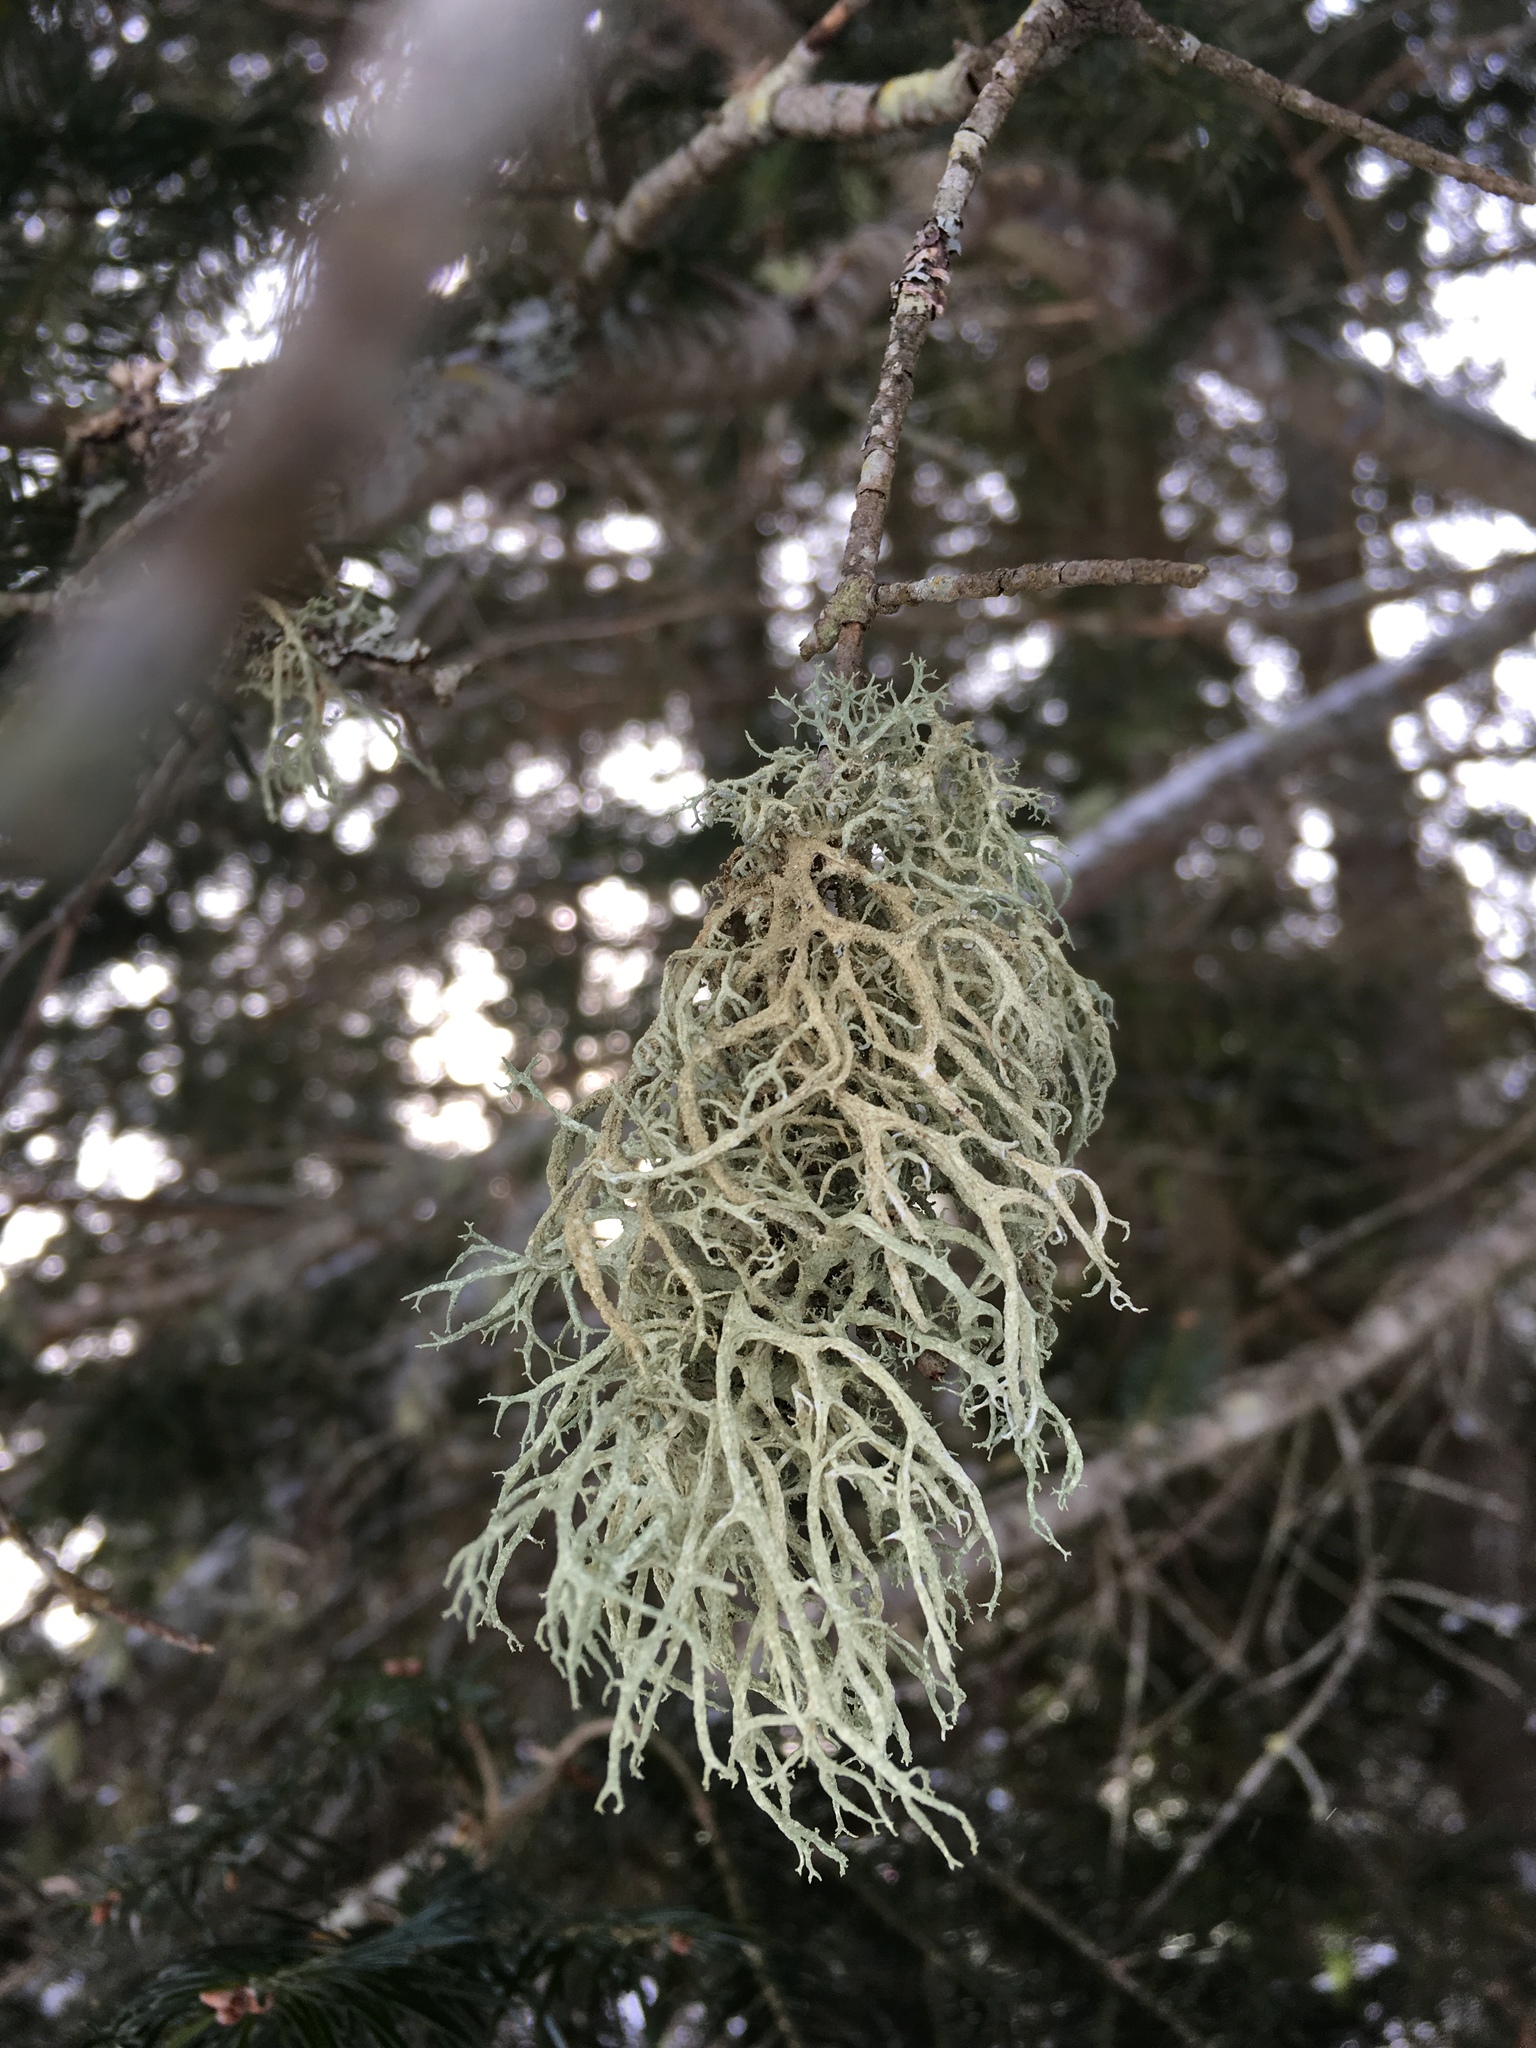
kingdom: Fungi
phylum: Ascomycota
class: Lecanoromycetes
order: Lecanorales
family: Parmeliaceae
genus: Evernia
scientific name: Evernia mesomorpha
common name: Boreal oak moss lichen
